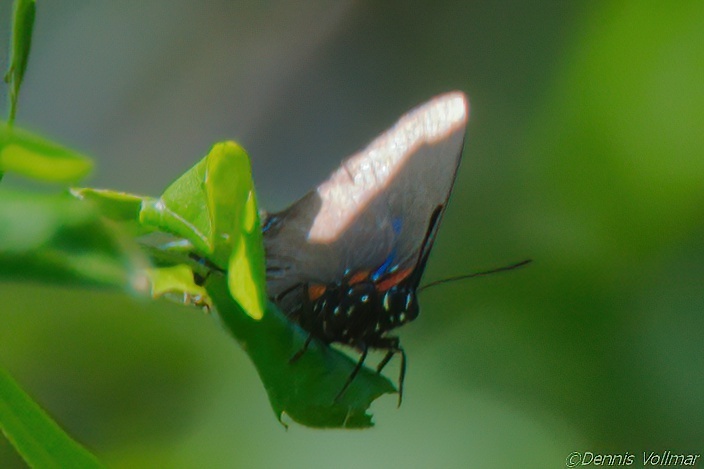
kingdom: Animalia
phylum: Arthropoda
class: Insecta
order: Lepidoptera
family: Lycaenidae
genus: Atlides
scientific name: Atlides halesus
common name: Great purple hairstreak
